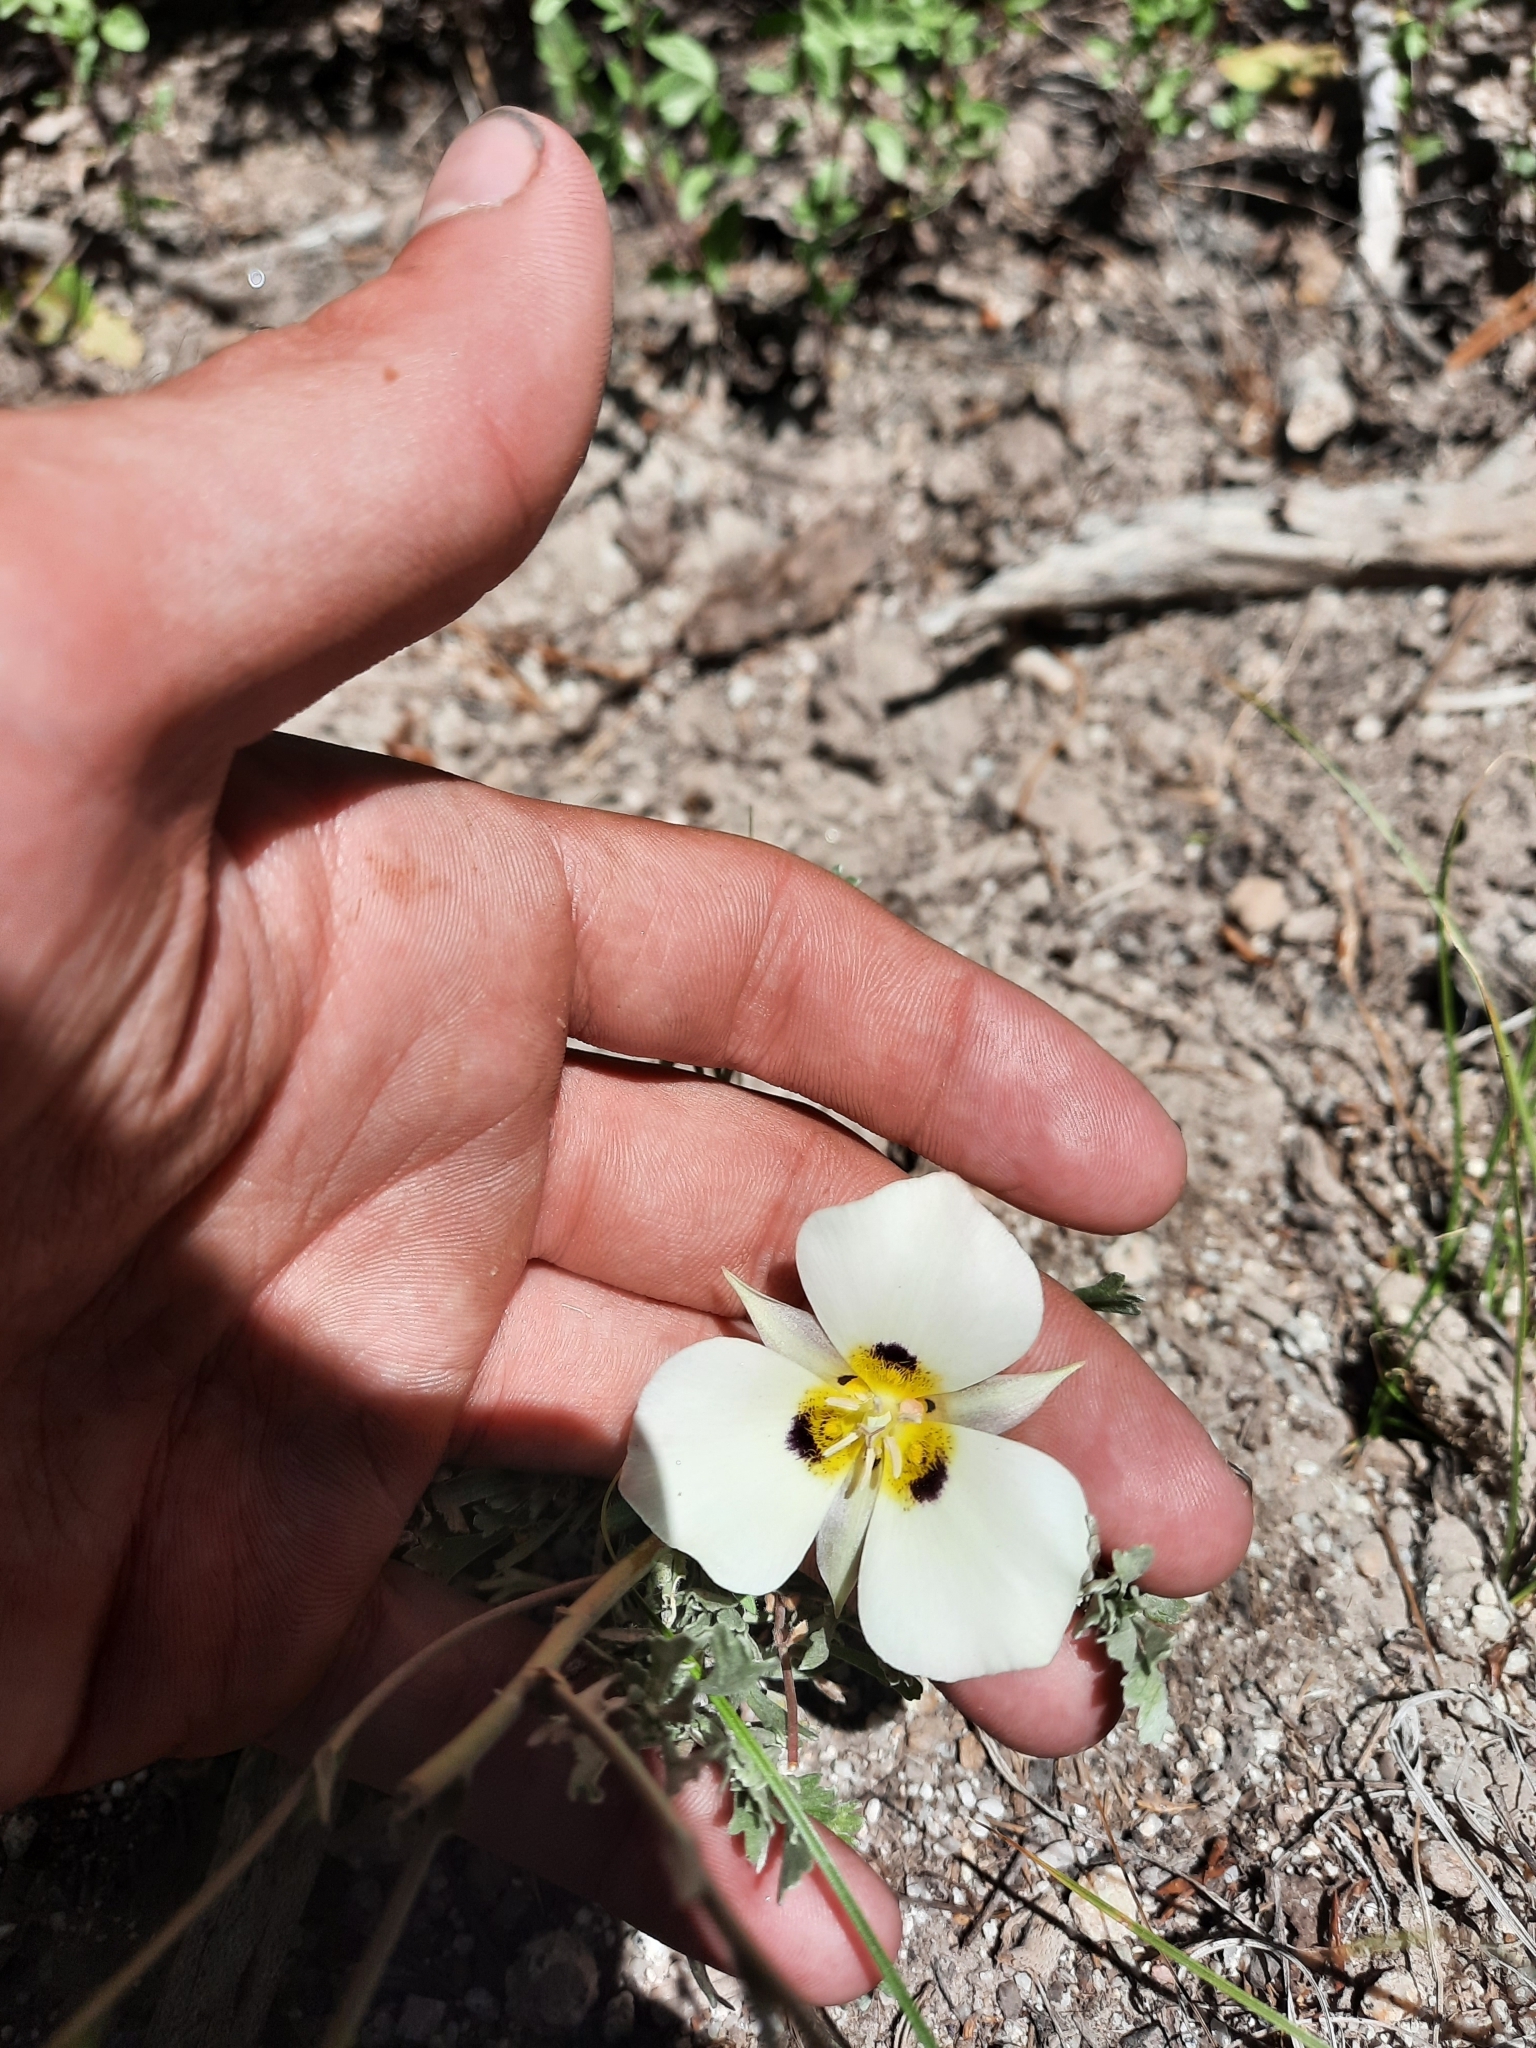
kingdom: Plantae
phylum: Tracheophyta
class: Liliopsida
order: Liliales
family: Liliaceae
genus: Calochortus
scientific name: Calochortus leichtlinii
